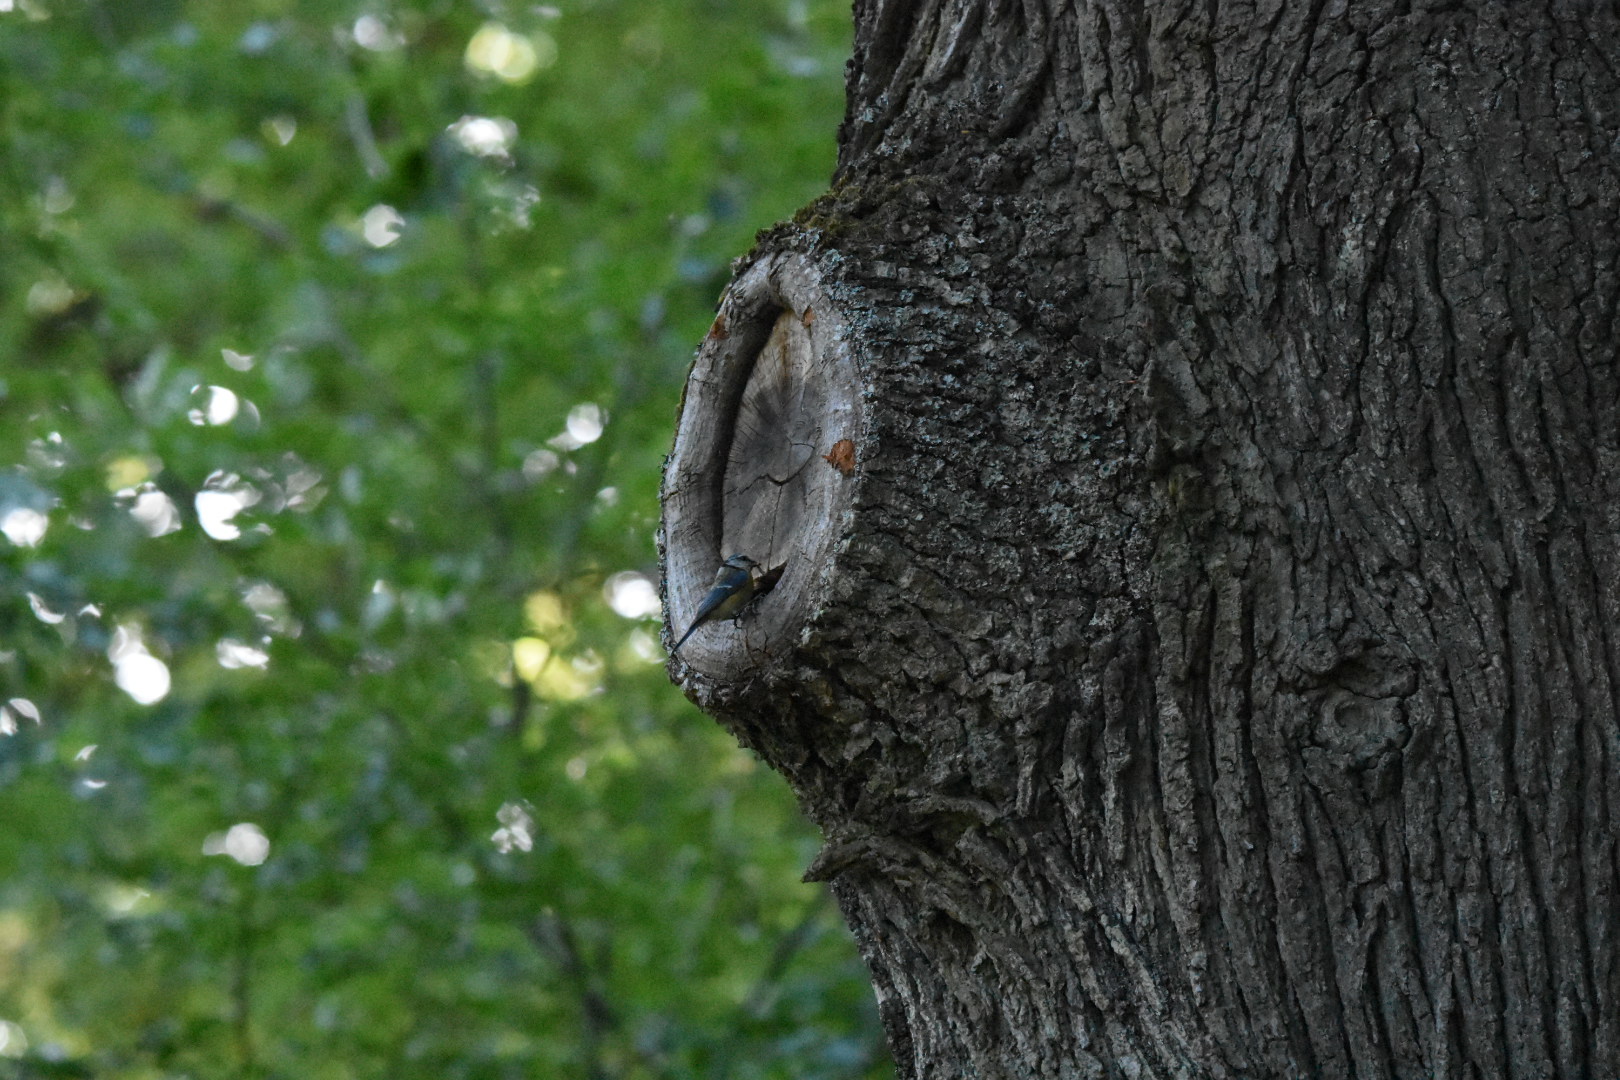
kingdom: Animalia
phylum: Chordata
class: Aves
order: Passeriformes
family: Paridae
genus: Cyanistes
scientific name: Cyanistes caeruleus
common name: Eurasian blue tit
